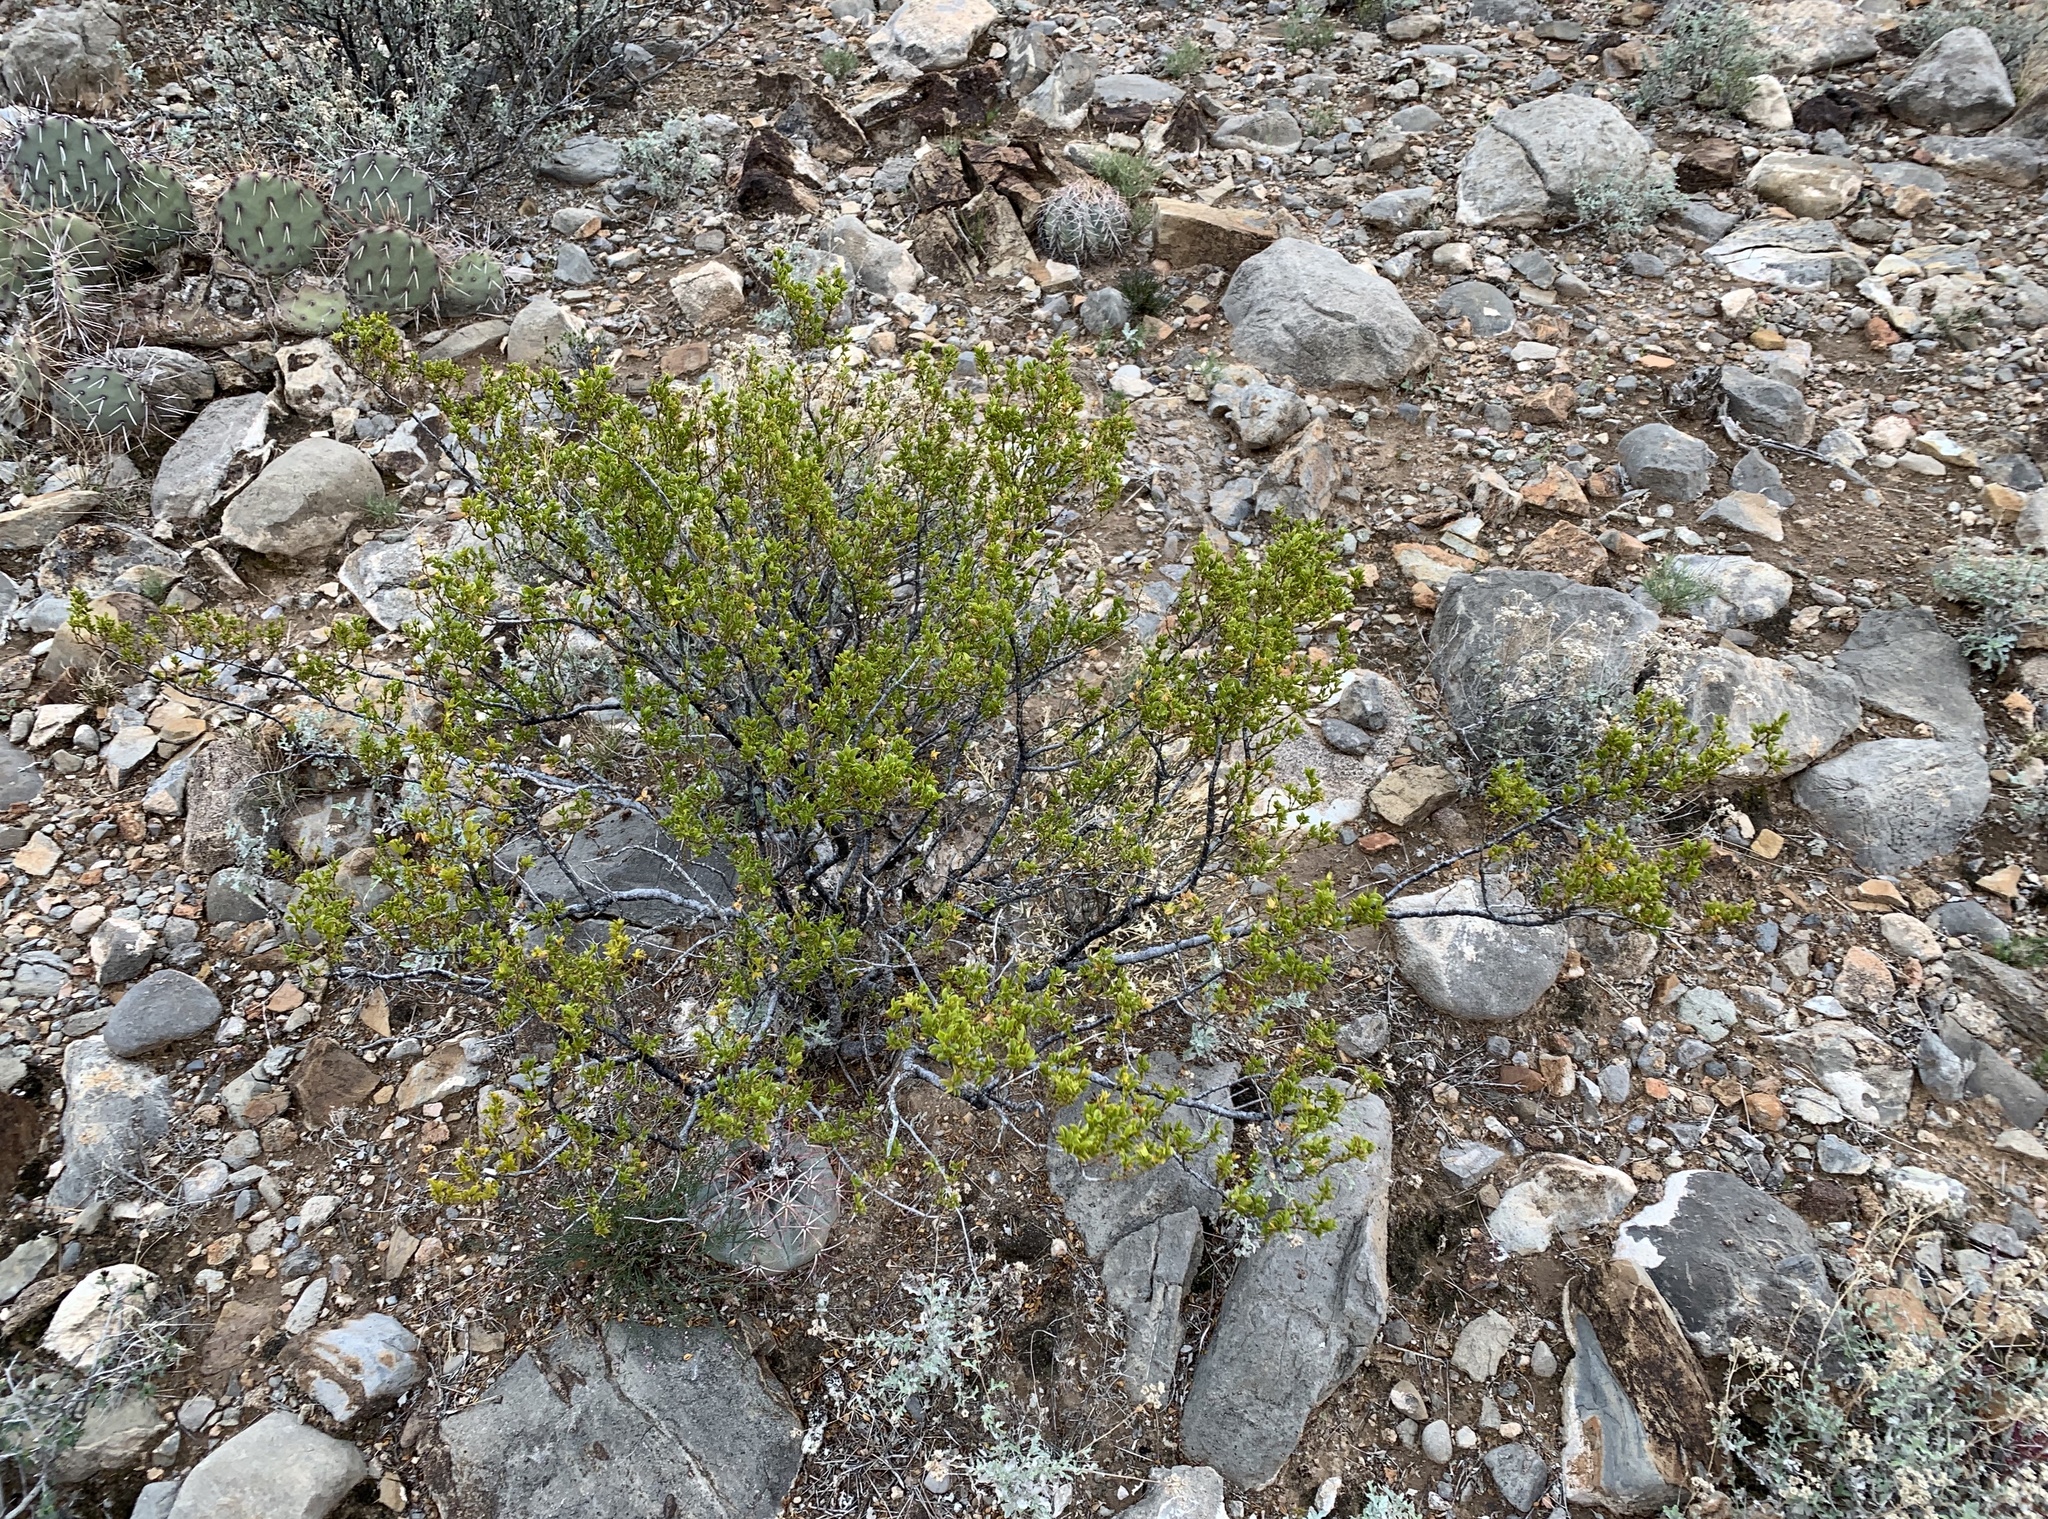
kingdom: Plantae
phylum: Tracheophyta
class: Magnoliopsida
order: Zygophyllales
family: Zygophyllaceae
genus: Larrea
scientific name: Larrea tridentata
